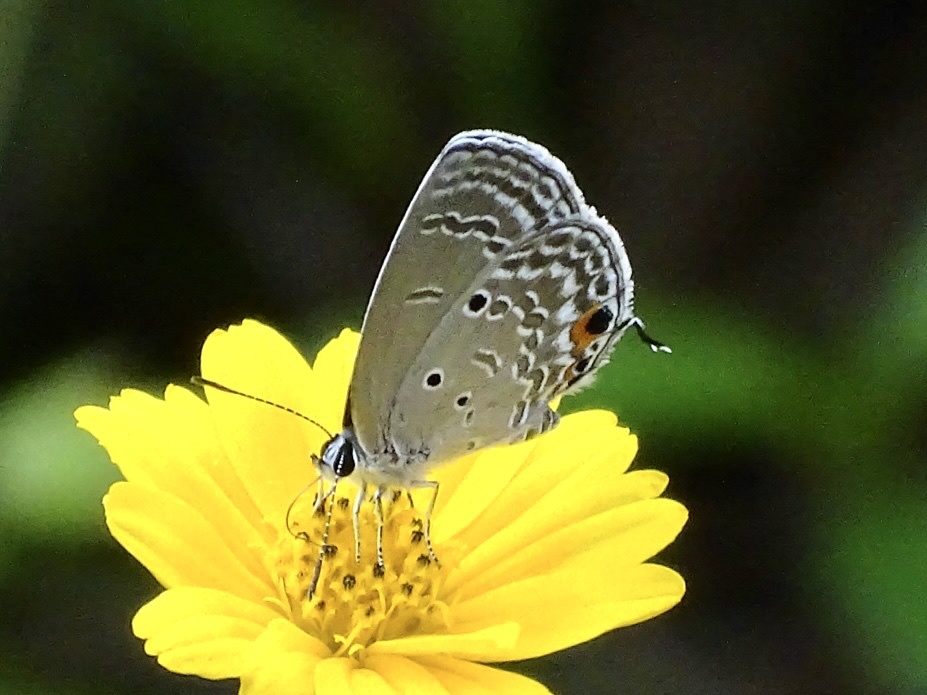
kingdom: Animalia
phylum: Arthropoda
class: Insecta
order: Lepidoptera
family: Lycaenidae
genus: Luthrodes
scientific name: Luthrodes pandava
